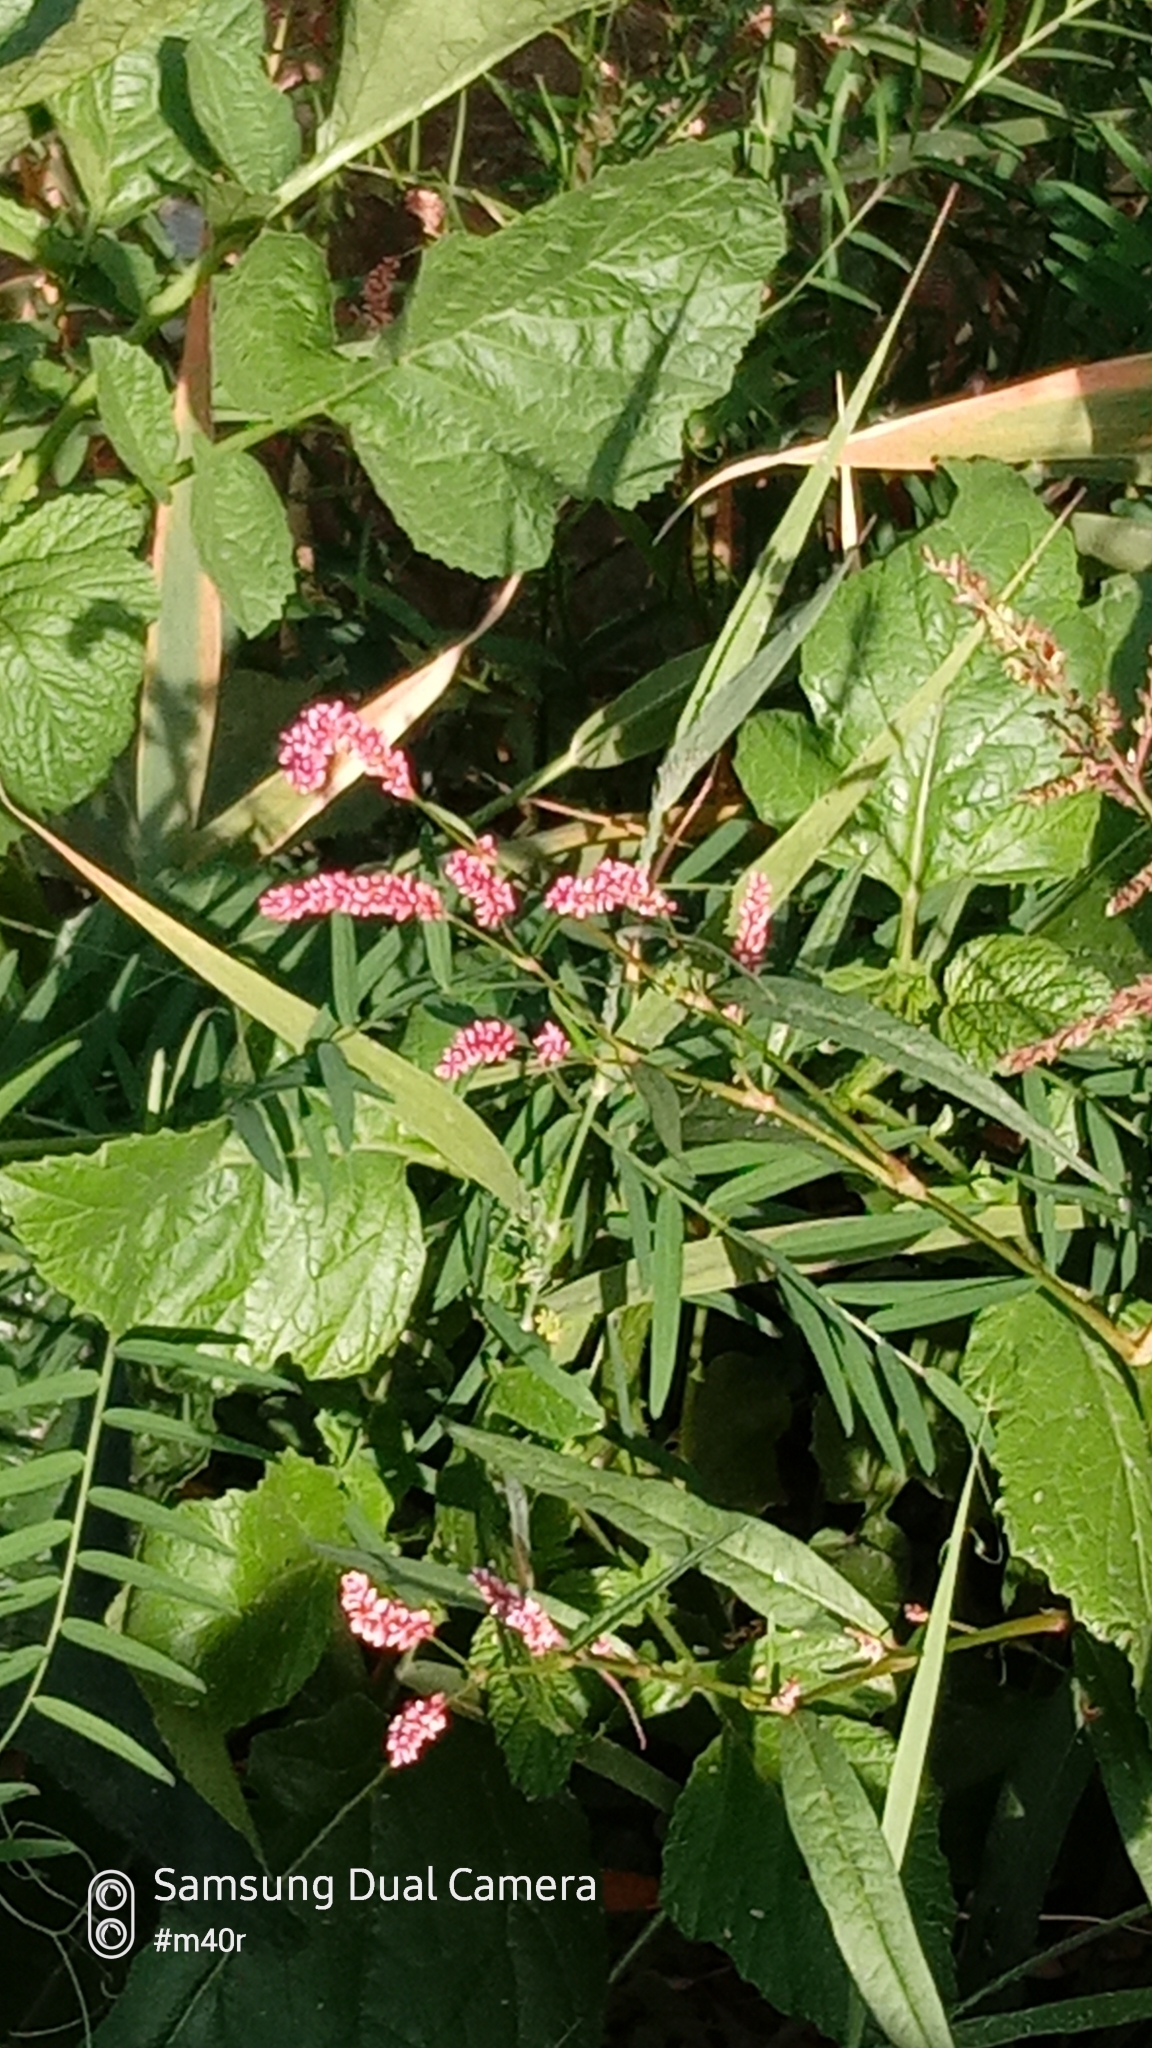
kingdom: Plantae
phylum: Tracheophyta
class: Magnoliopsida
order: Caryophyllales
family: Polygonaceae
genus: Persicaria
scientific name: Persicaria hydropiper
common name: Water-pepper
